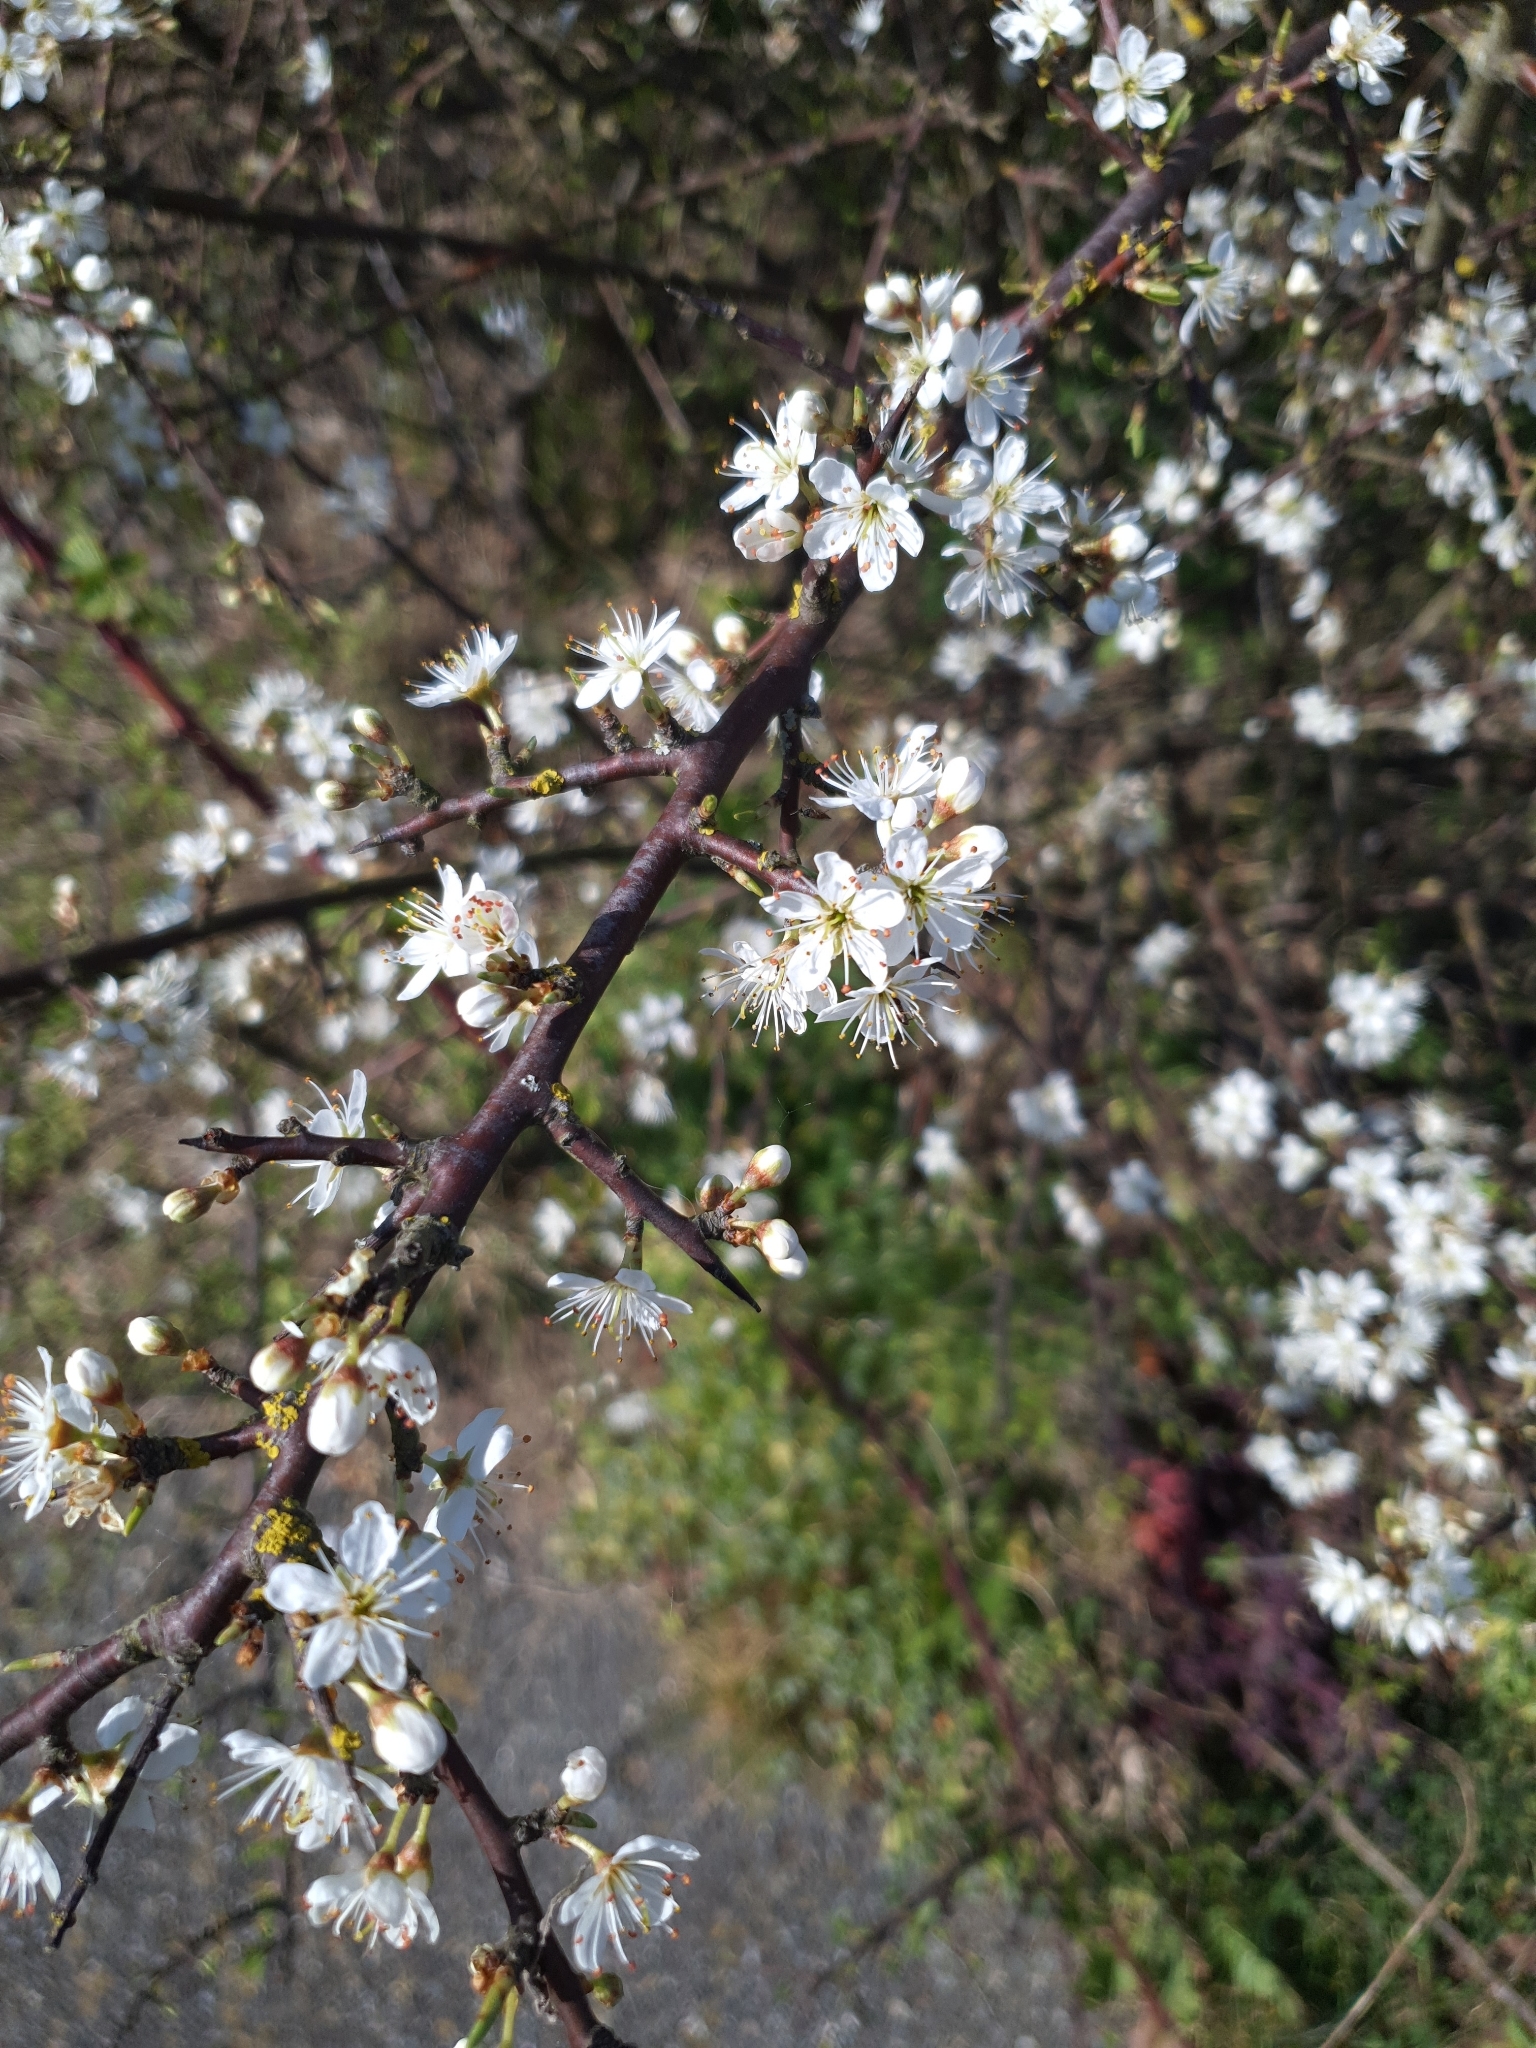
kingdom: Plantae
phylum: Tracheophyta
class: Magnoliopsida
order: Rosales
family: Rosaceae
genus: Prunus
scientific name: Prunus spinosa
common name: Blackthorn
